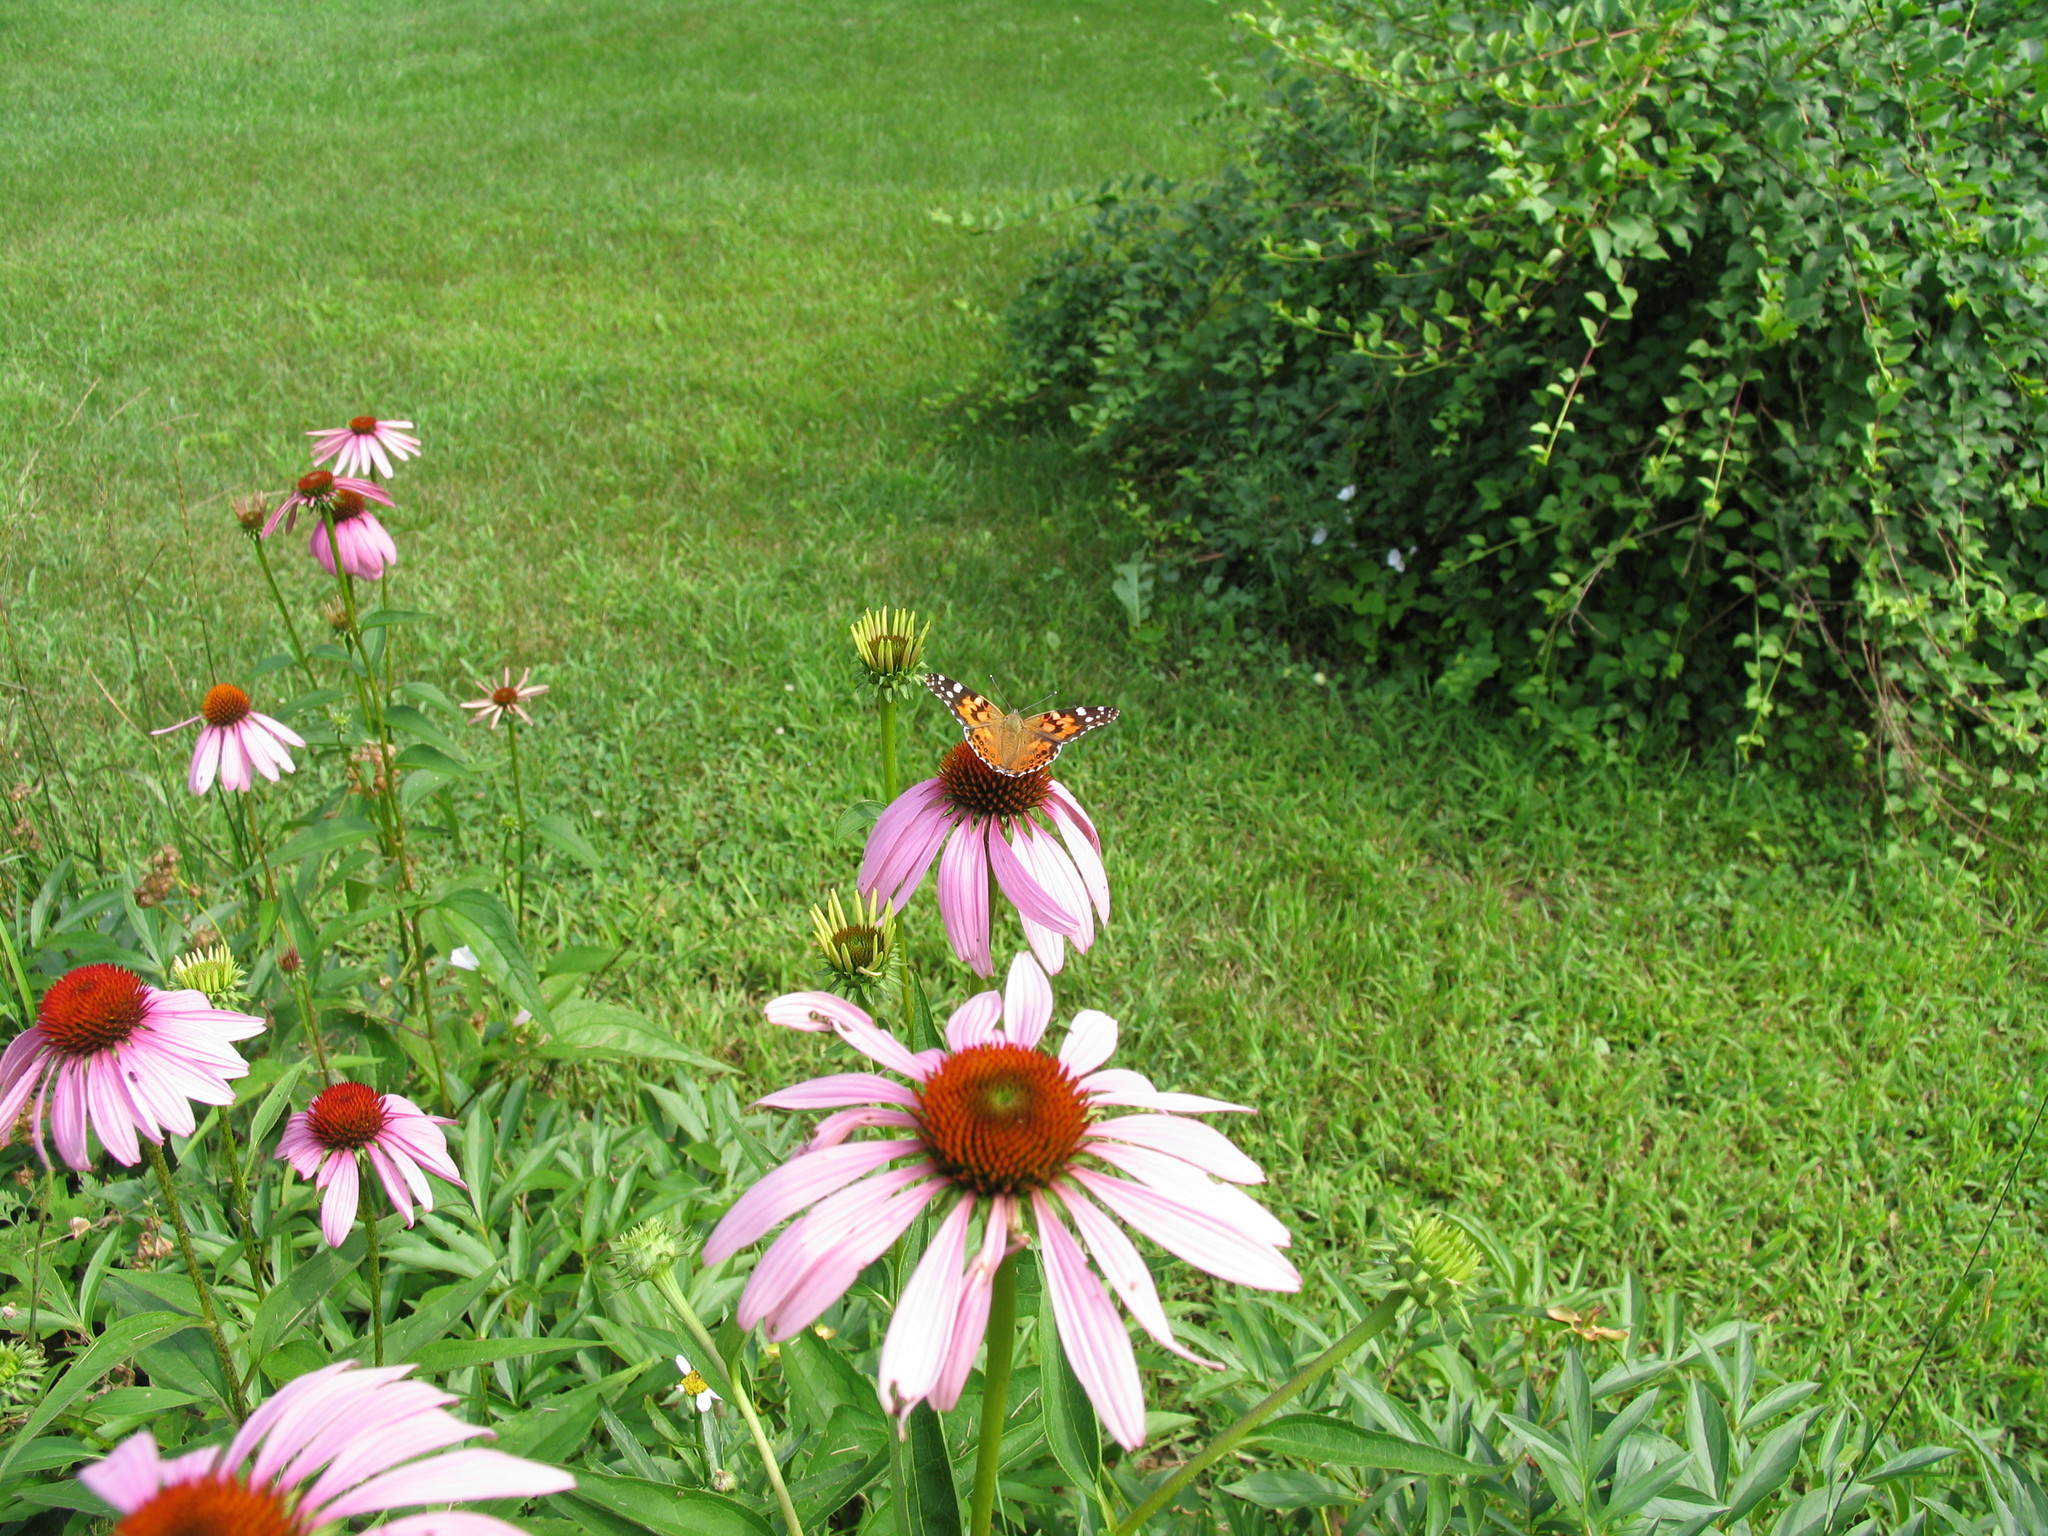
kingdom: Animalia
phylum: Arthropoda
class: Insecta
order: Lepidoptera
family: Nymphalidae
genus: Vanessa
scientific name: Vanessa cardui
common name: Painted lady
